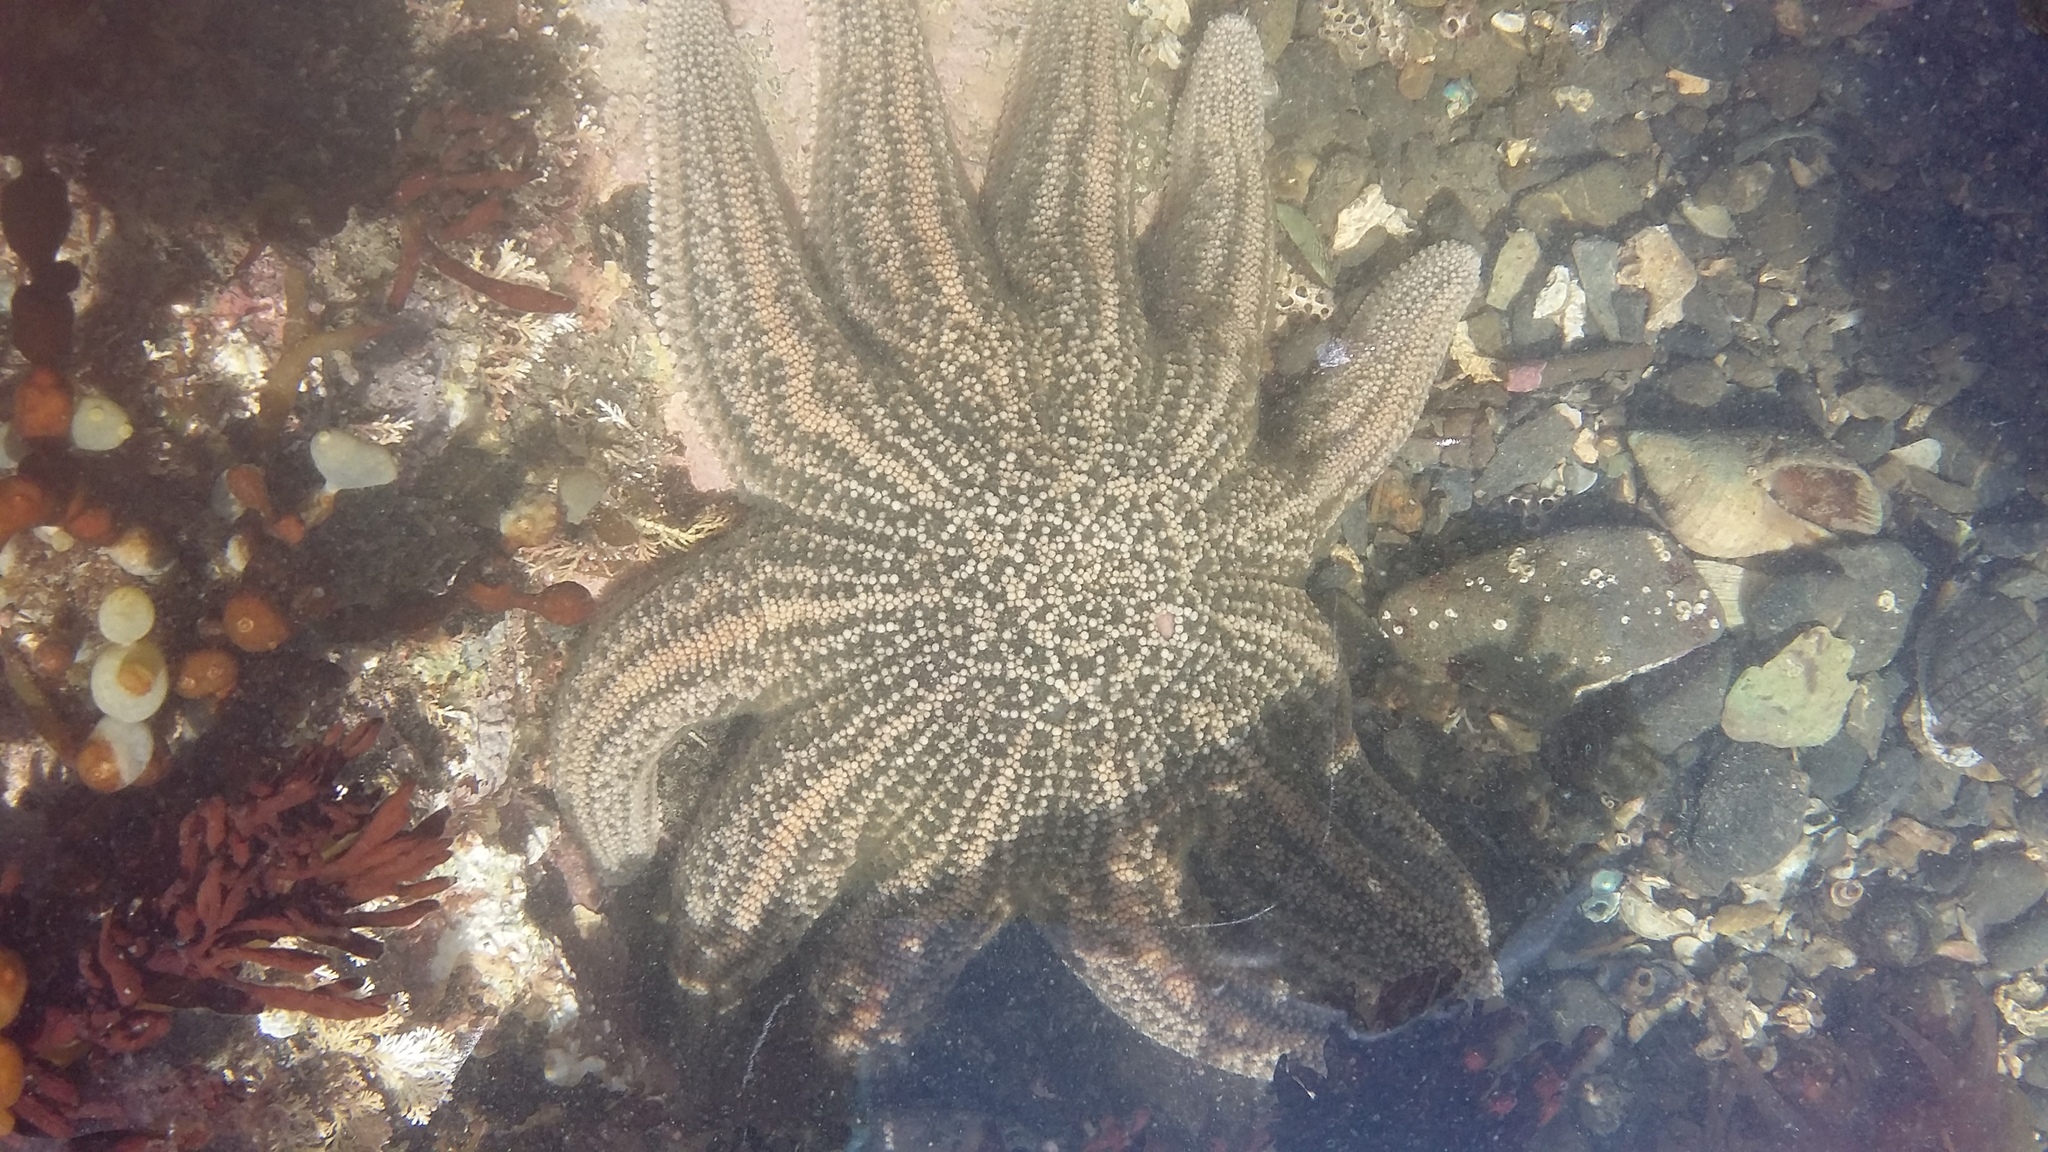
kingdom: Animalia
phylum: Echinodermata
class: Asteroidea
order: Forcipulatida
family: Stichasteridae
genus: Stichaster
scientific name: Stichaster australis
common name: Reef starfish
